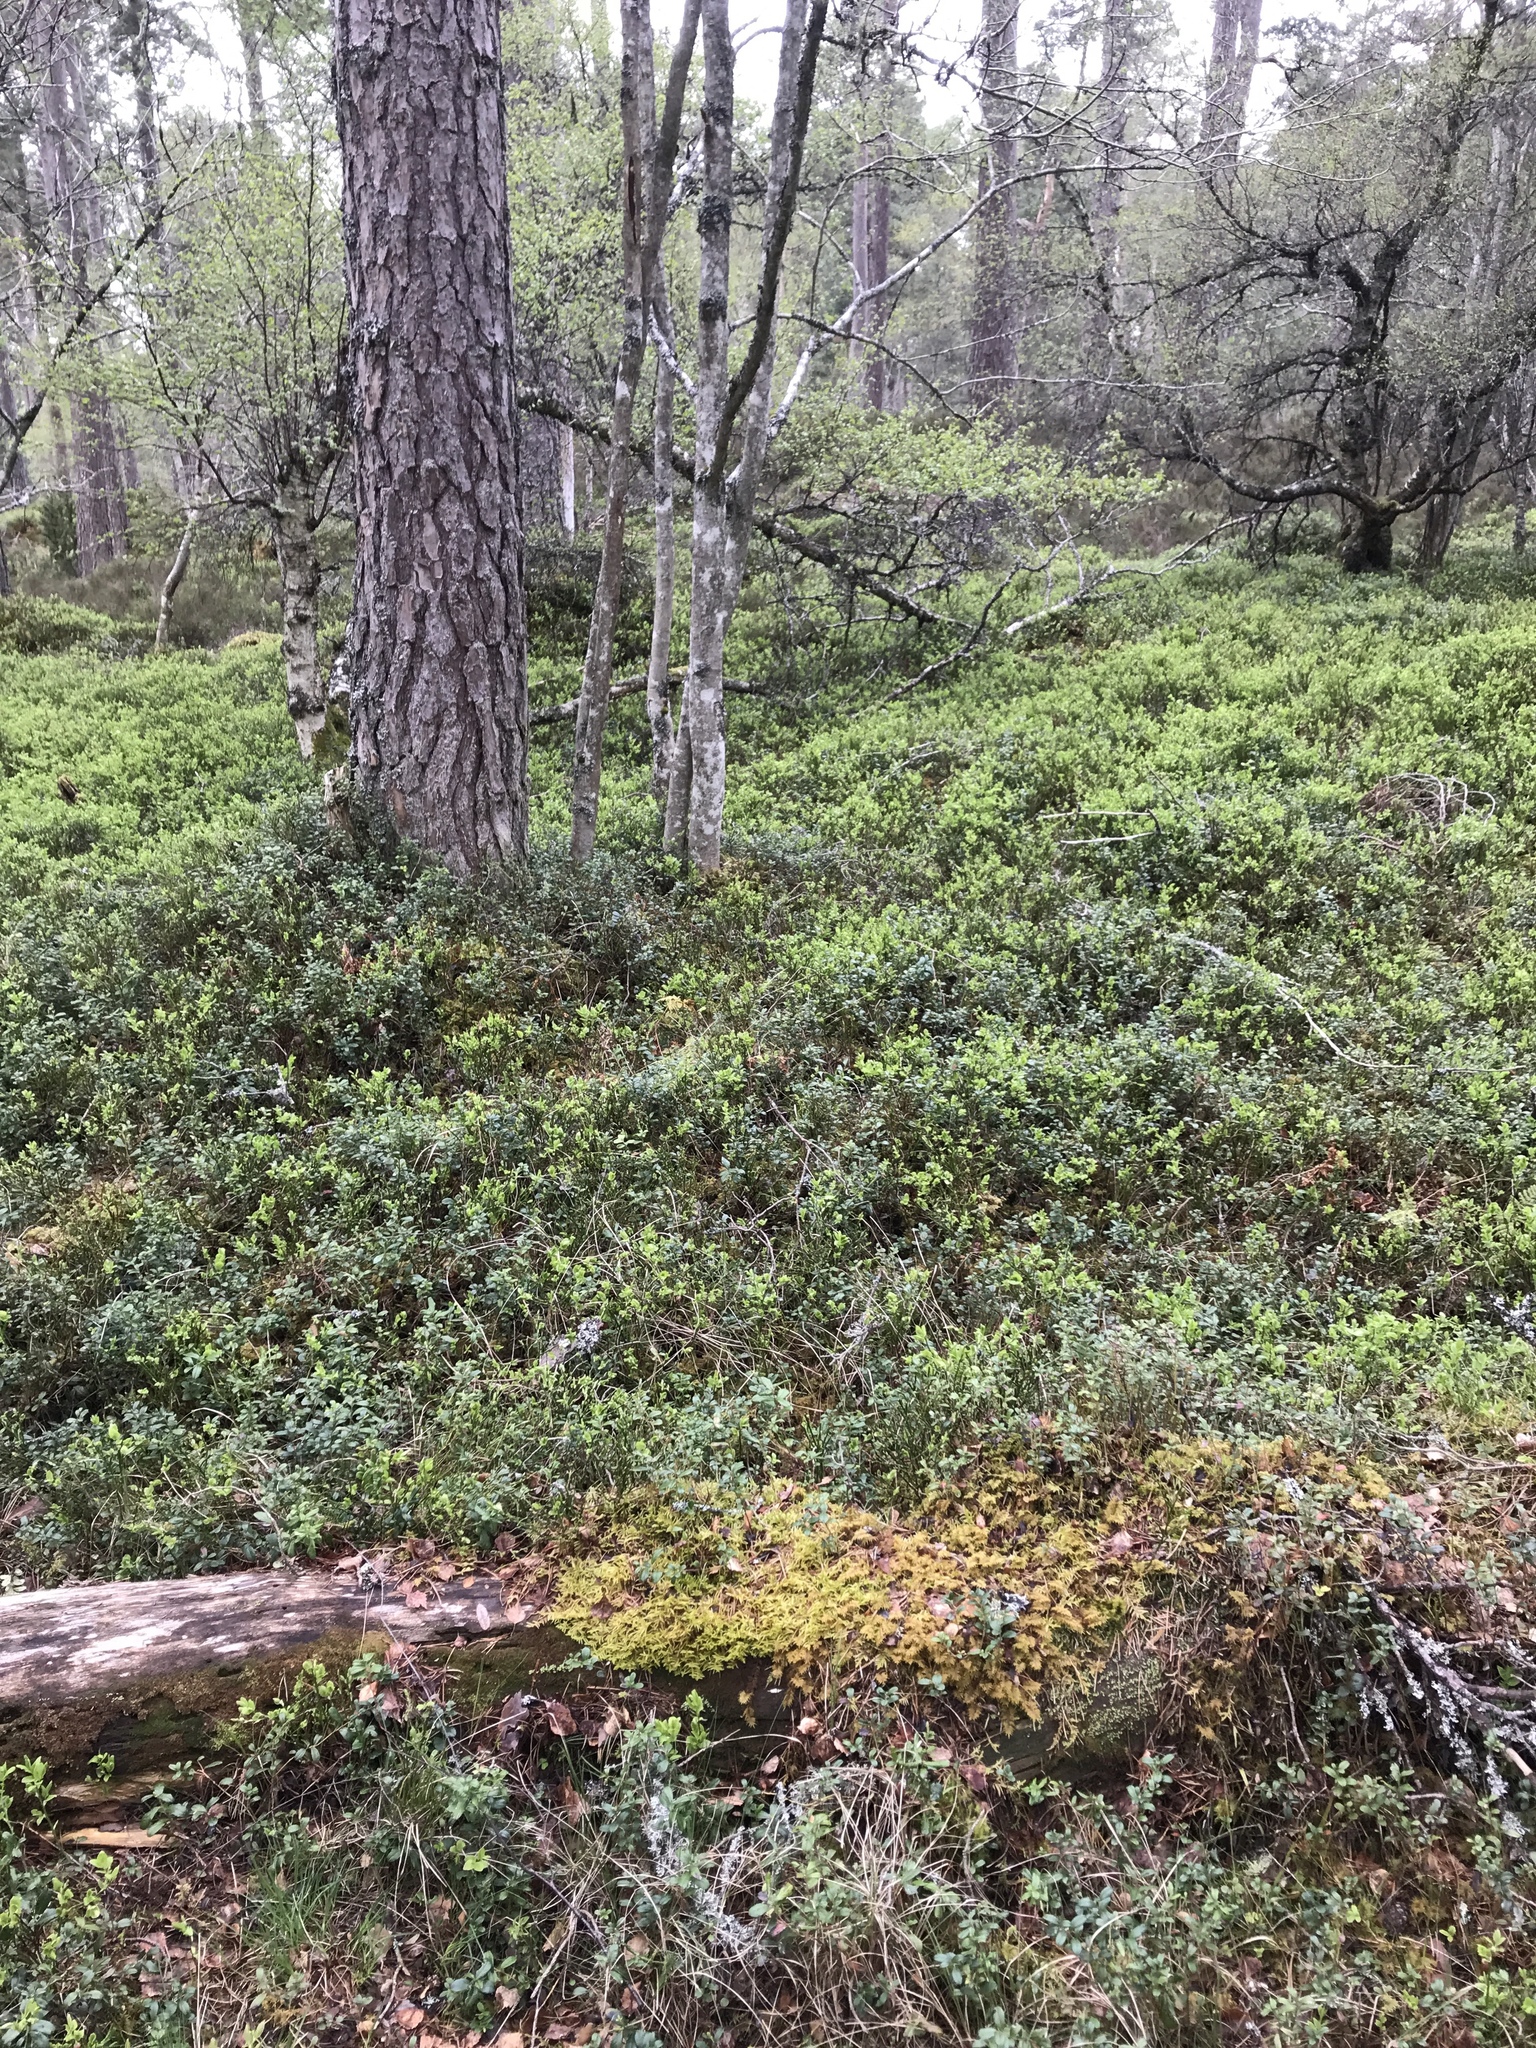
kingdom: Plantae
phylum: Bryophyta
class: Bryopsida
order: Hypnales
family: Brachytheciaceae
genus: Pseudoscleropodium
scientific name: Pseudoscleropodium purum
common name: Neat feather-moss
